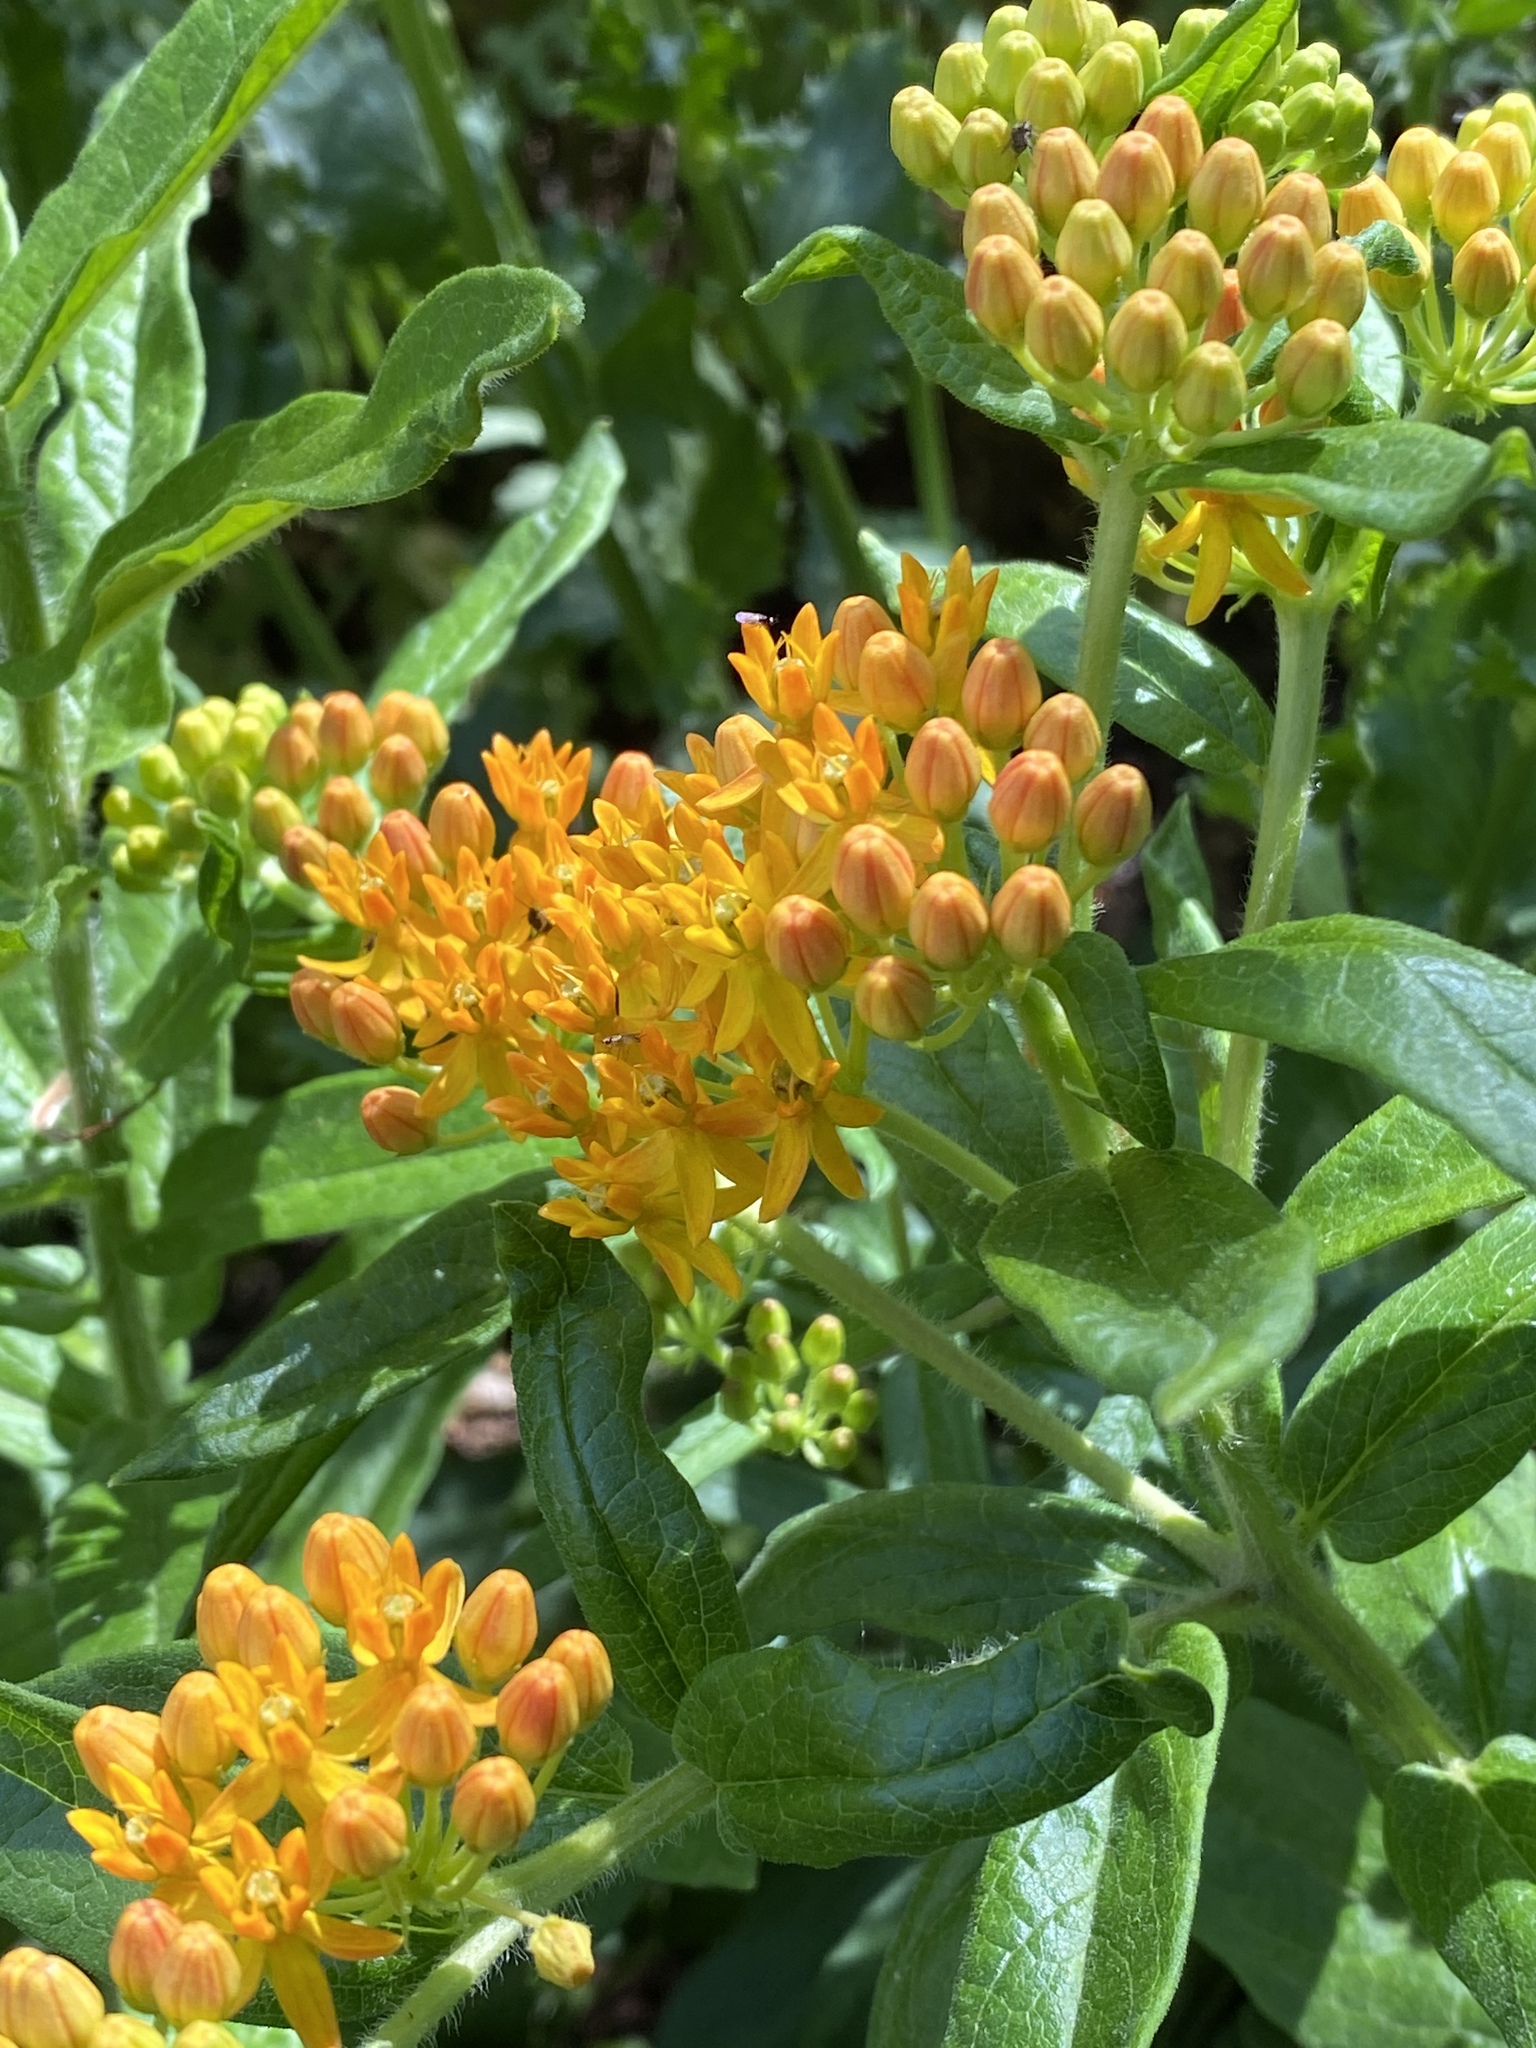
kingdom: Plantae
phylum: Tracheophyta
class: Magnoliopsida
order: Gentianales
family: Apocynaceae
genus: Asclepias
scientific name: Asclepias tuberosa
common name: Butterfly milkweed
